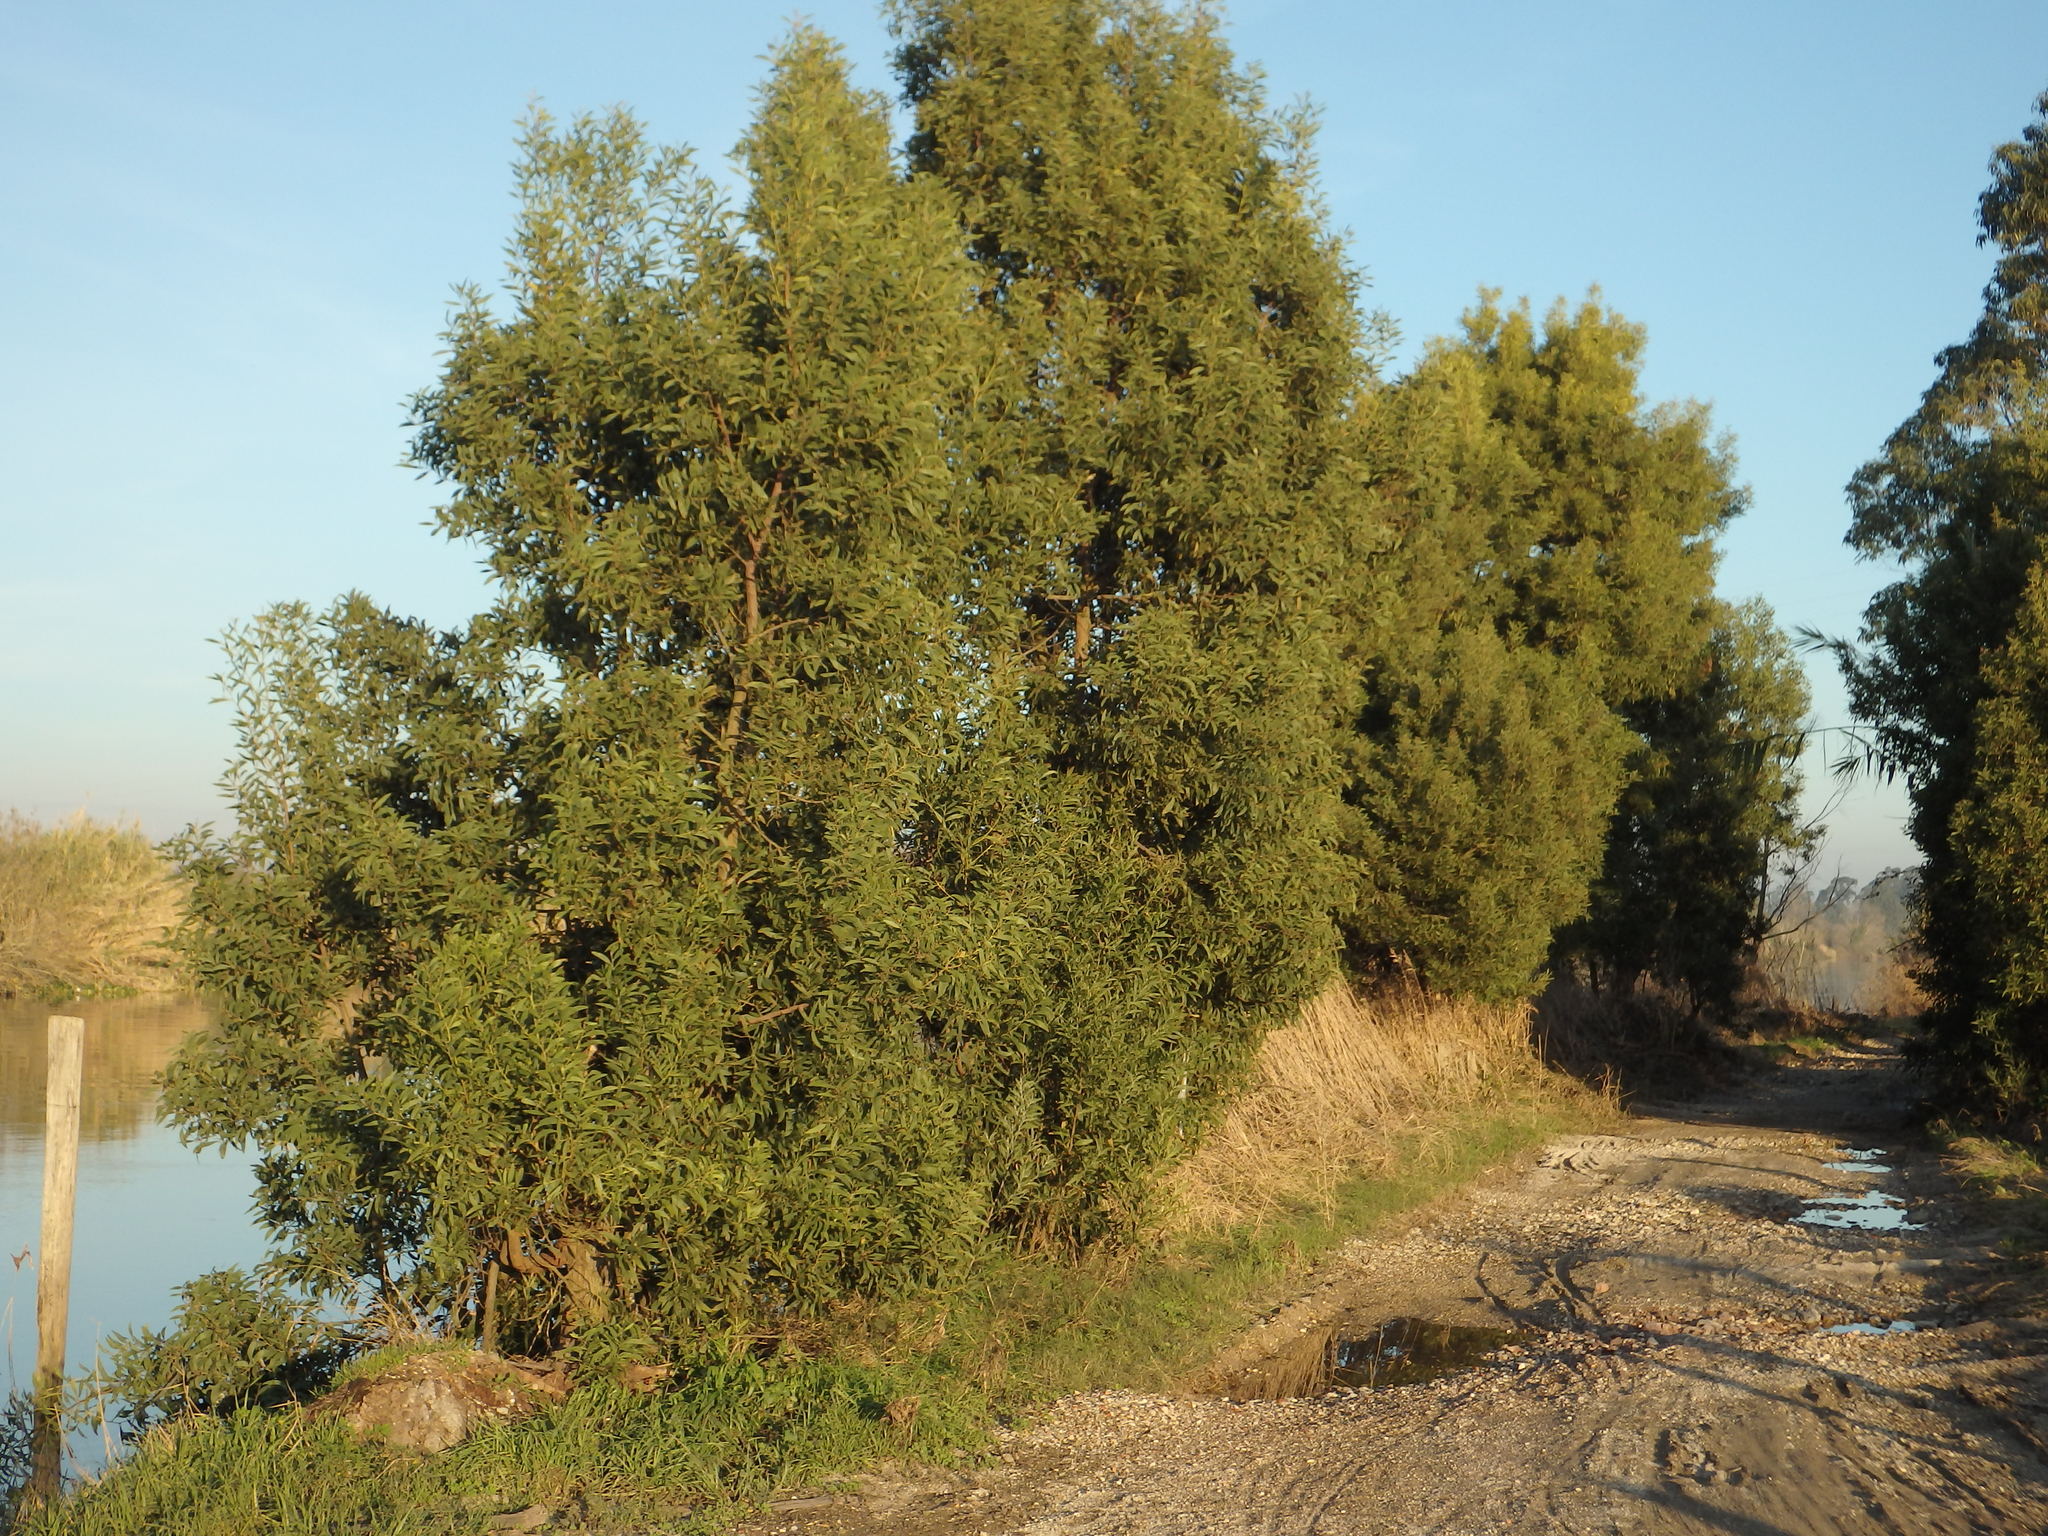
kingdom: Plantae
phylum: Tracheophyta
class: Magnoliopsida
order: Fabales
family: Fabaceae
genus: Acacia
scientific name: Acacia melanoxylon
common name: Blackwood
